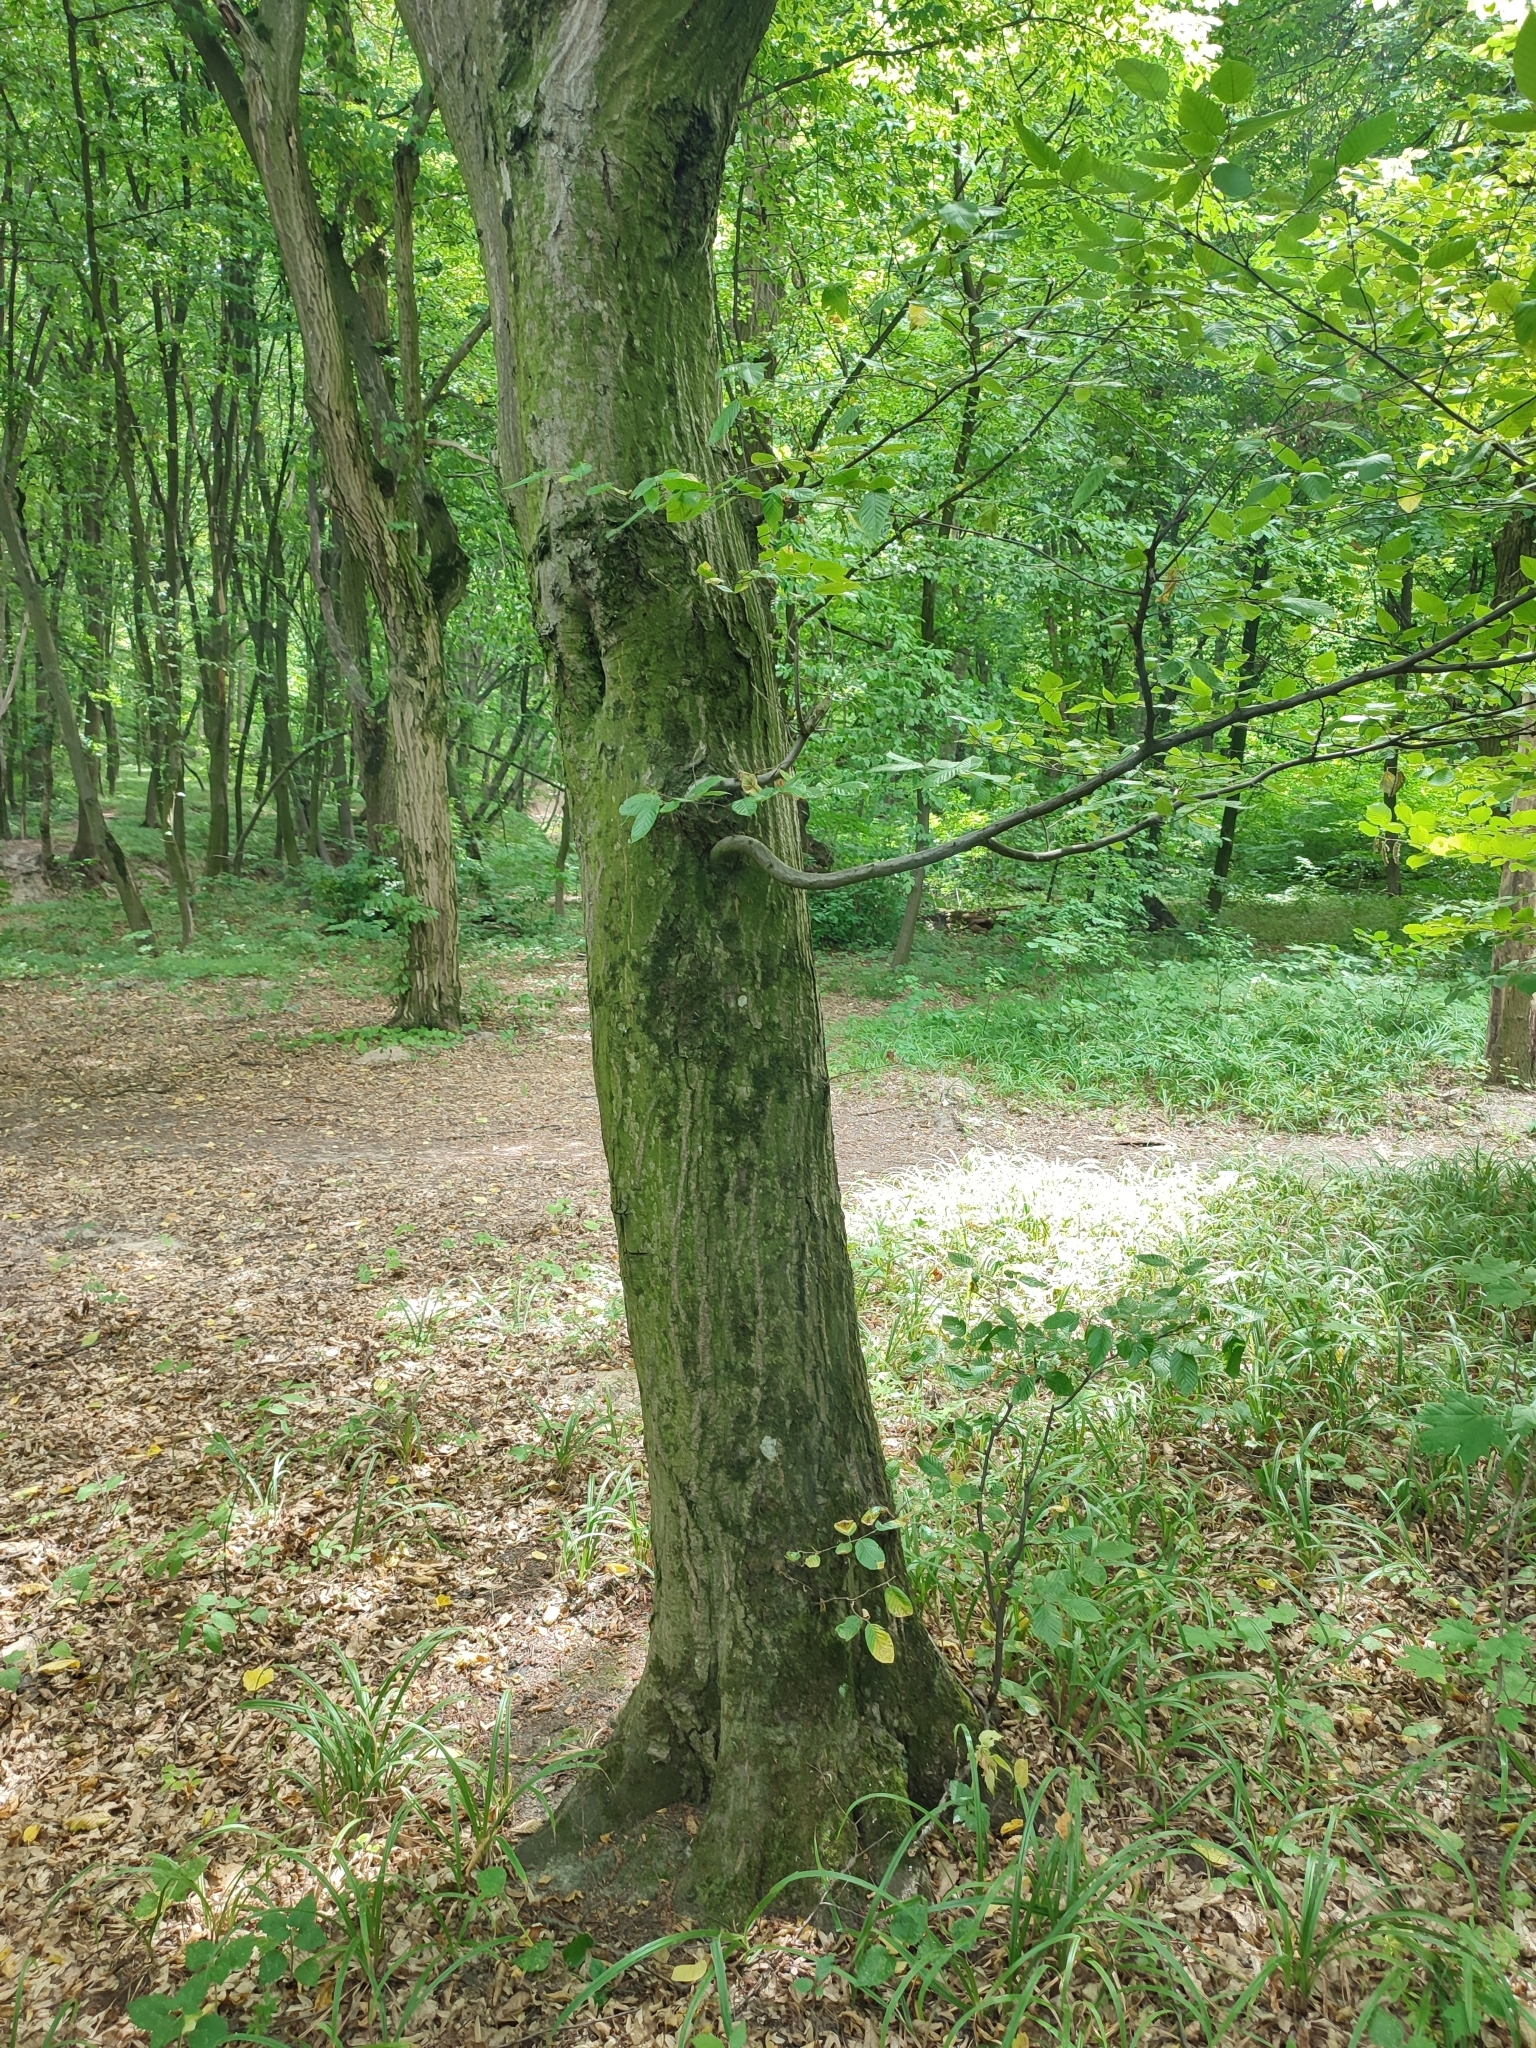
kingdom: Plantae
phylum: Tracheophyta
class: Magnoliopsida
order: Fagales
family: Betulaceae
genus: Carpinus
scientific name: Carpinus betulus
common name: Hornbeam
